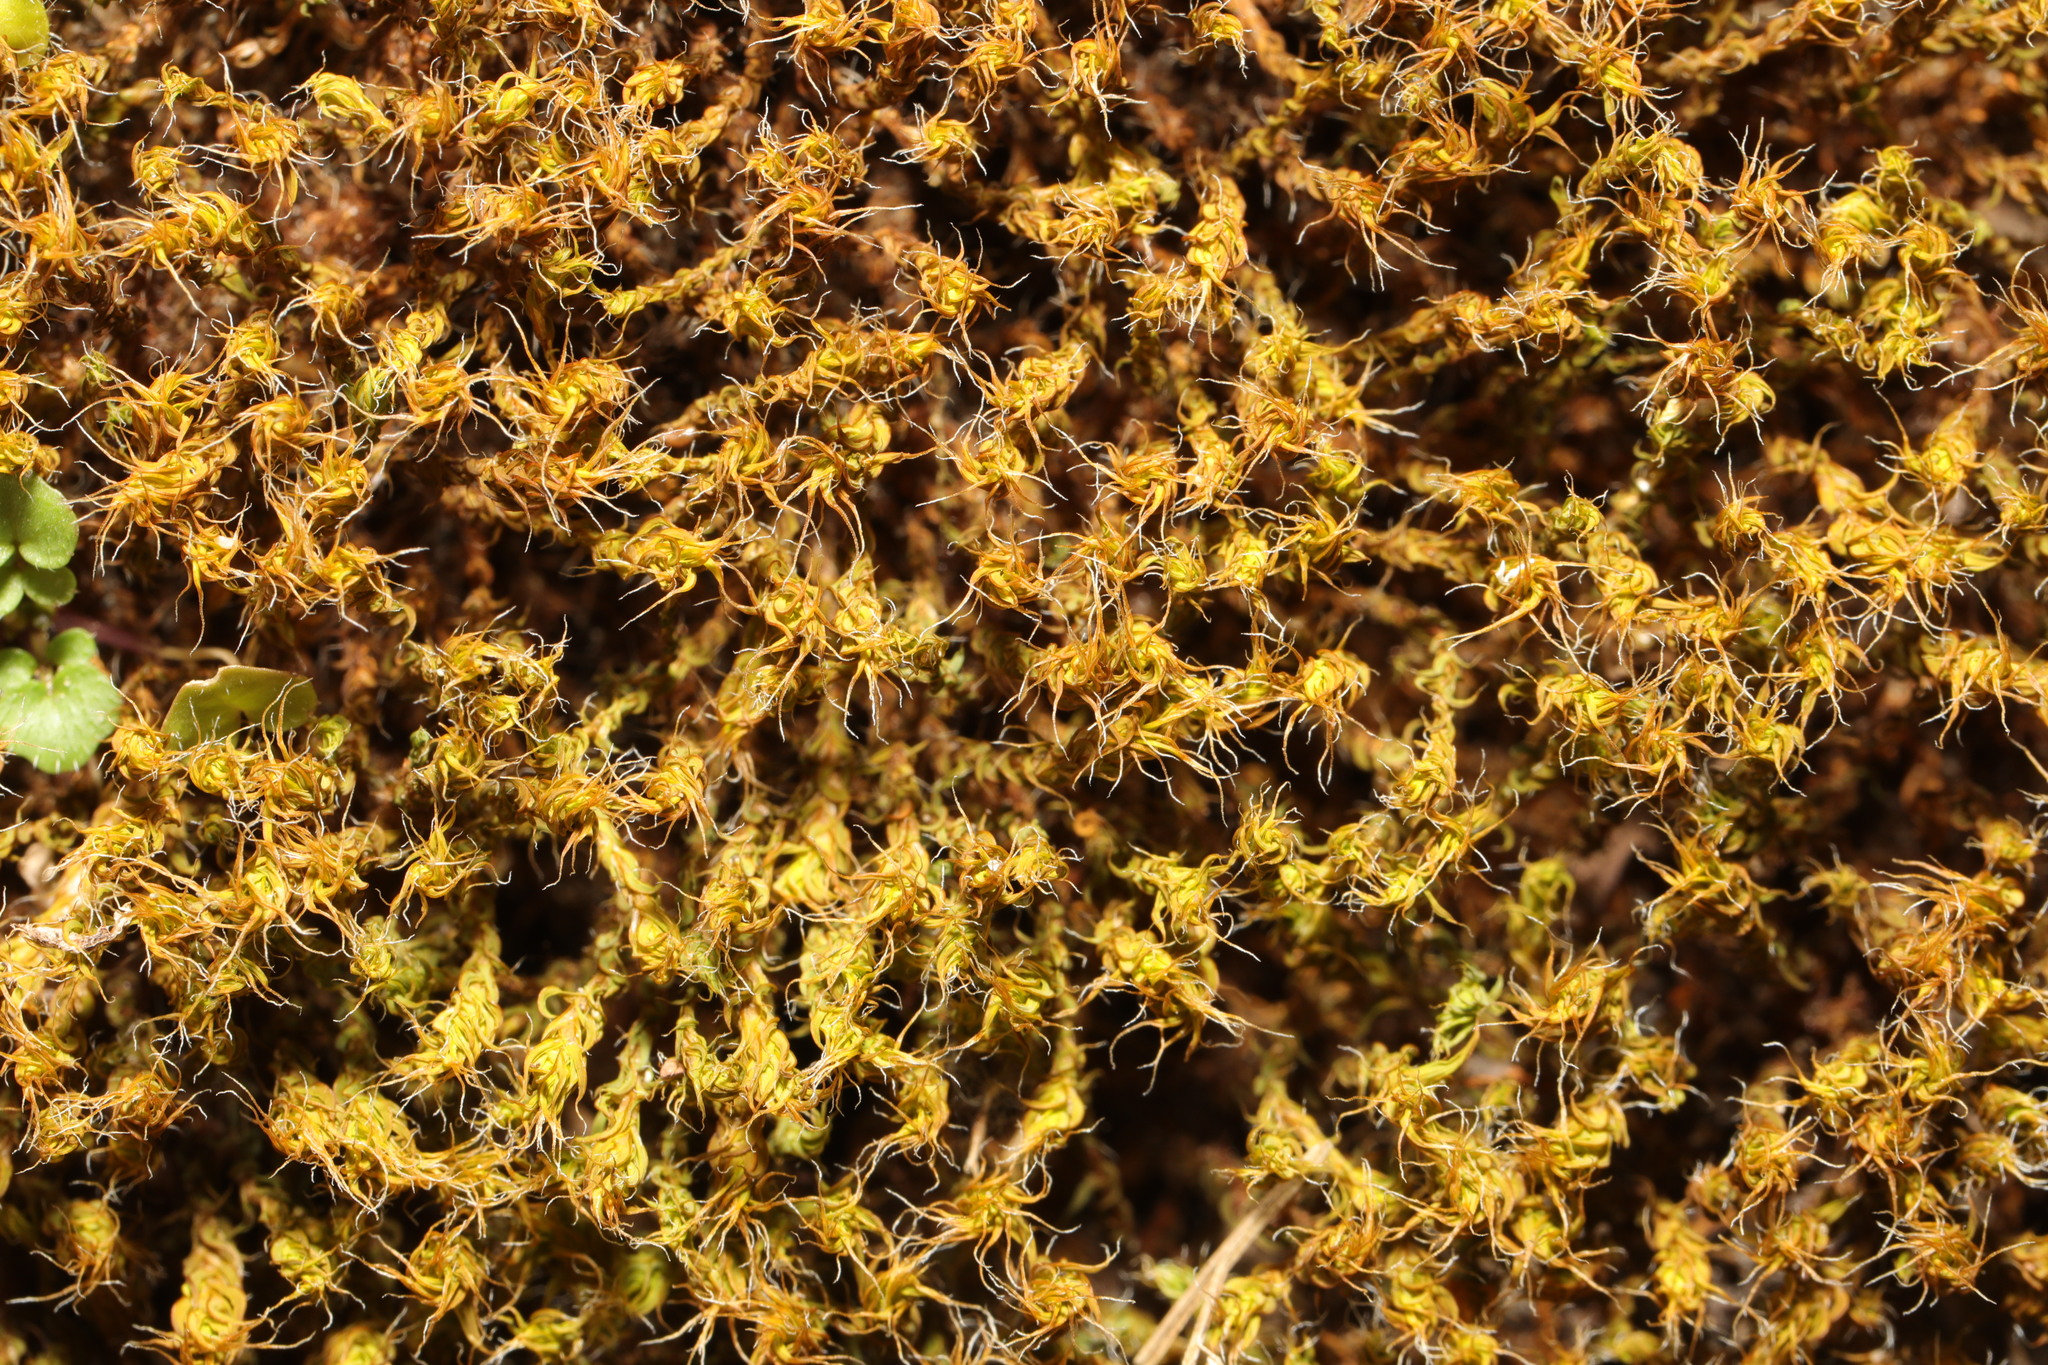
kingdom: Plantae
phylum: Bryophyta
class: Bryopsida
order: Pottiales
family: Pottiaceae
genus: Syntrichia
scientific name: Syntrichia ruralis
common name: Sidewalk screw moss
